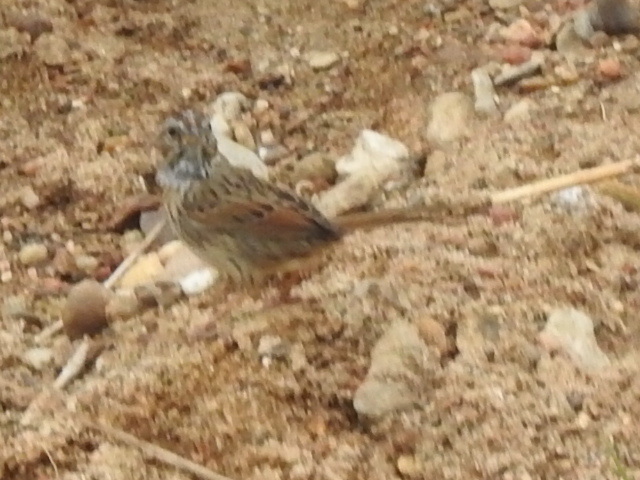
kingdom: Animalia
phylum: Chordata
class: Aves
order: Passeriformes
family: Passerellidae
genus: Melospiza
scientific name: Melospiza lincolnii
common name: Lincoln's sparrow
